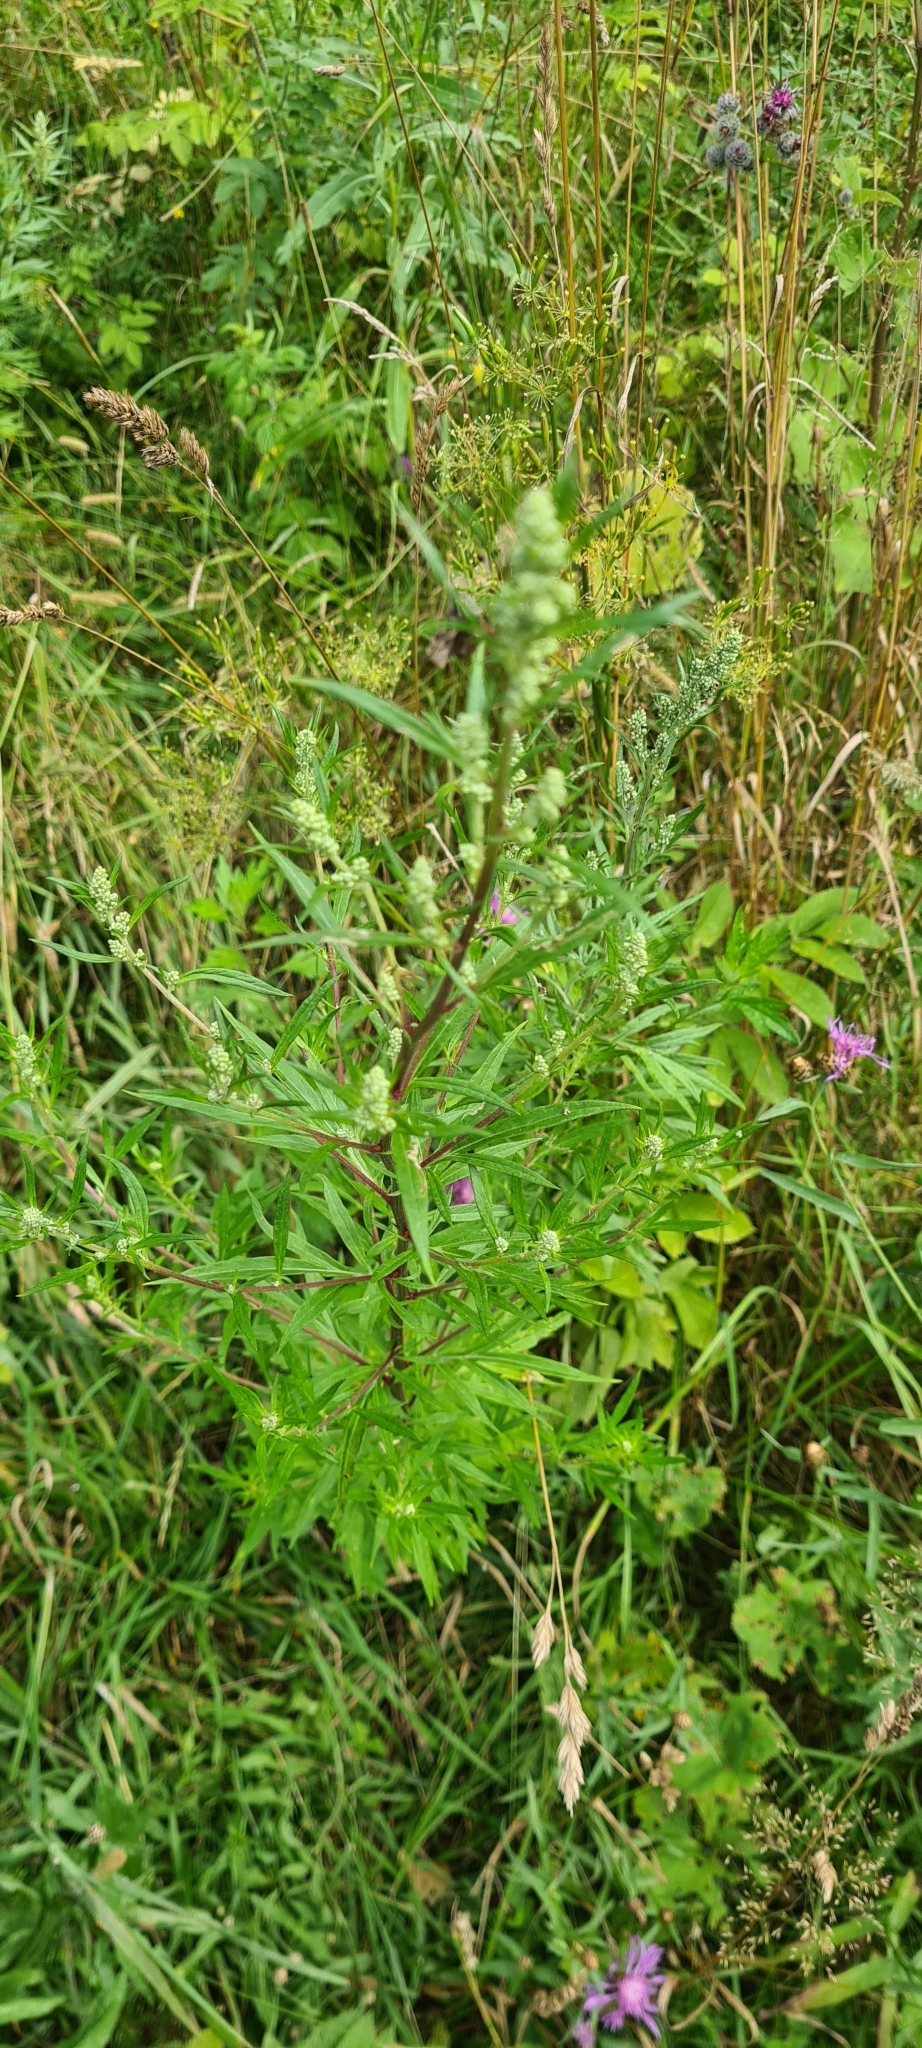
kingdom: Plantae
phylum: Tracheophyta
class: Magnoliopsida
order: Asterales
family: Asteraceae
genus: Artemisia
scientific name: Artemisia vulgaris
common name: Mugwort
